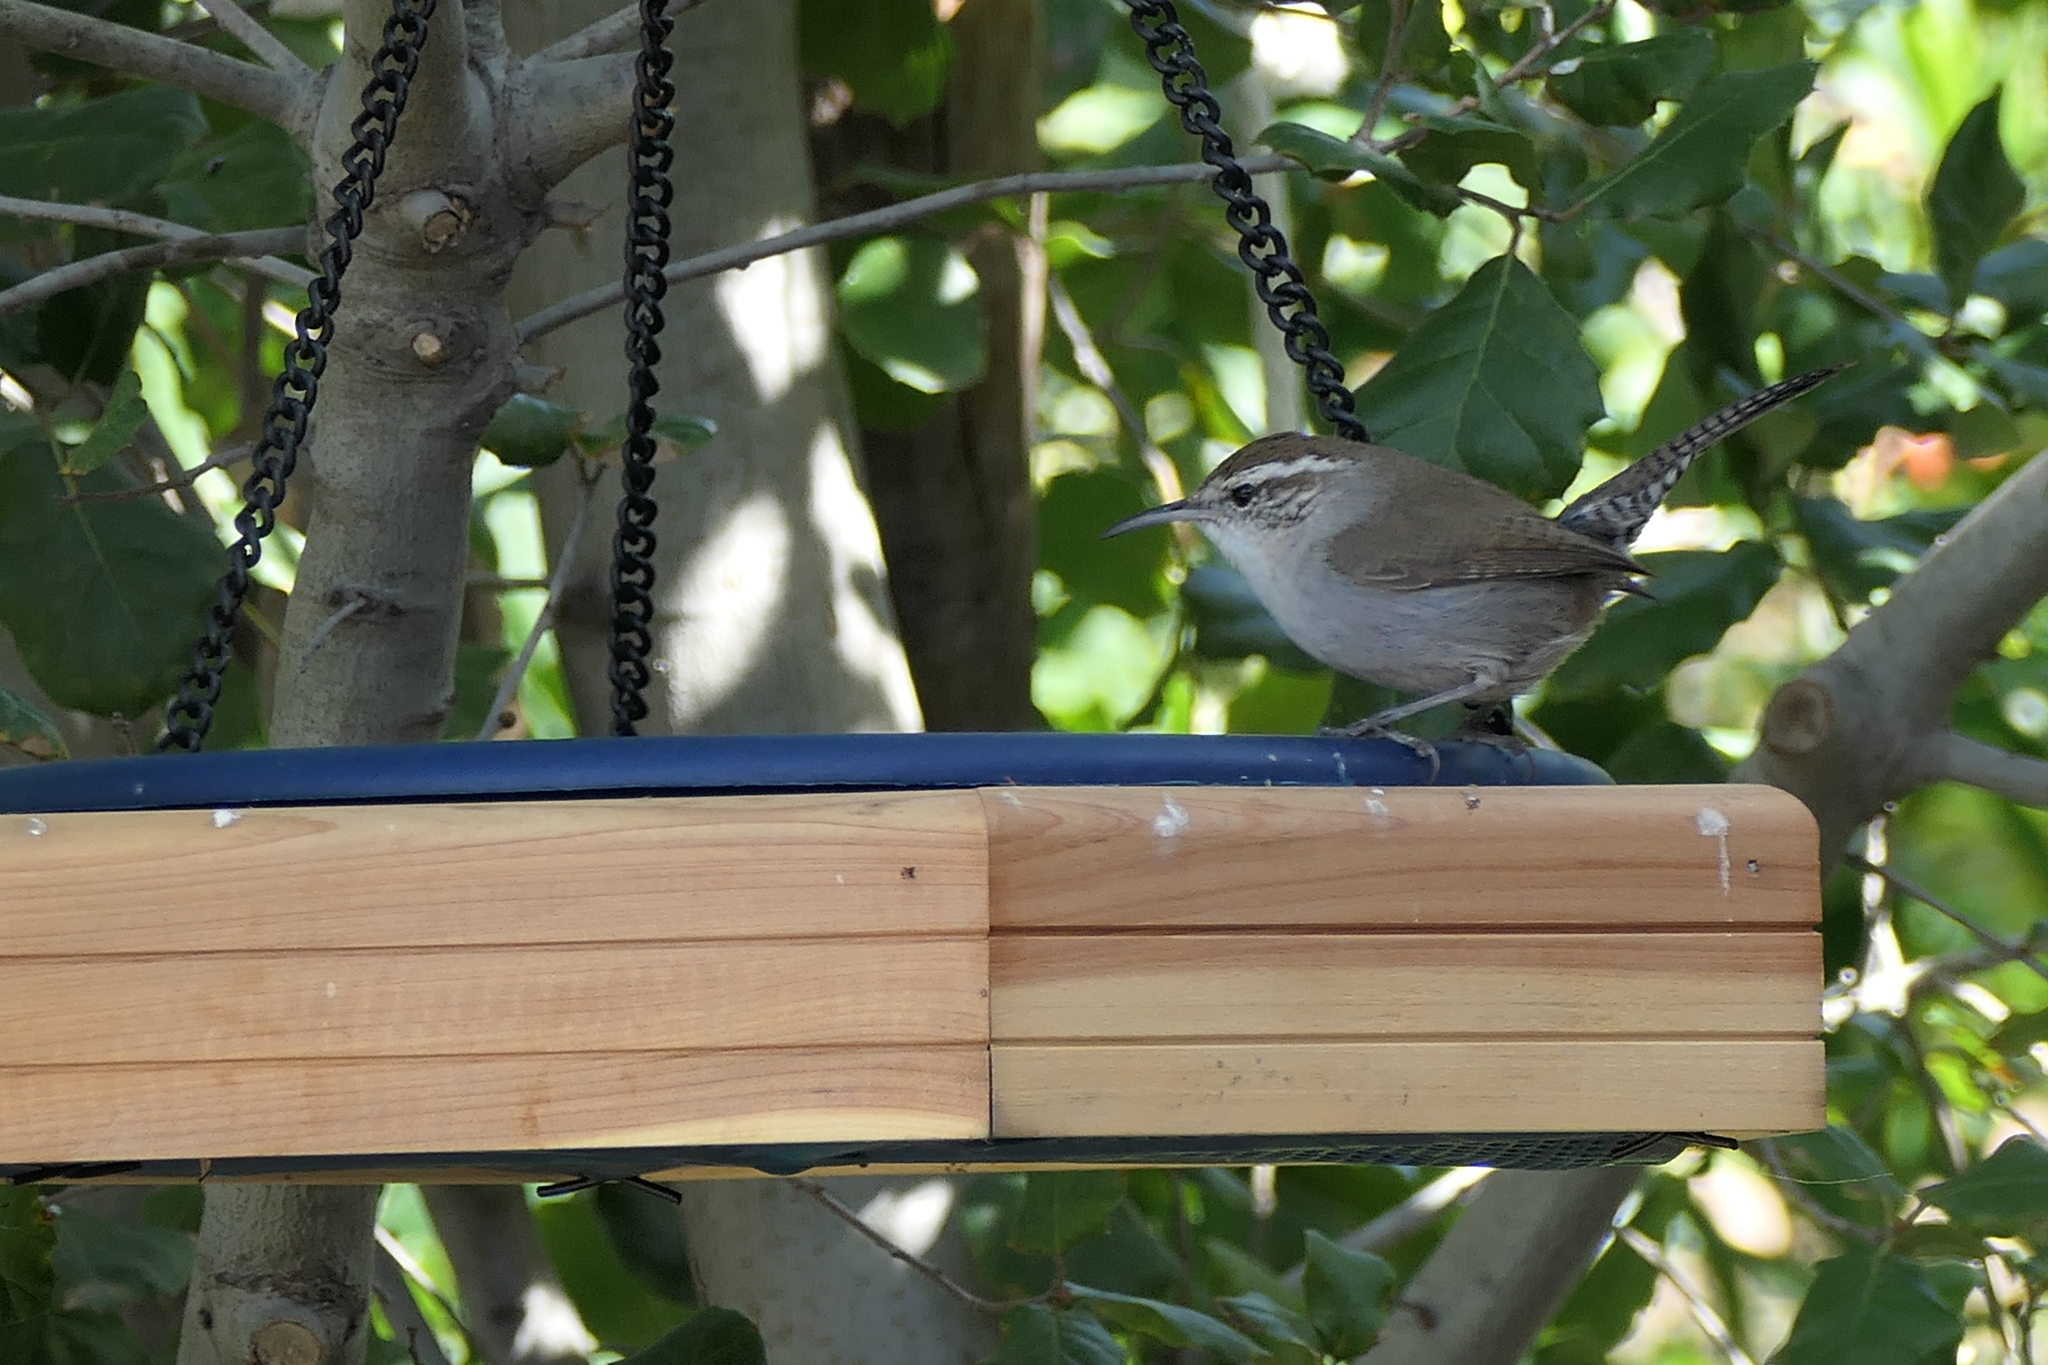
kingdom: Animalia
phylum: Chordata
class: Aves
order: Passeriformes
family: Troglodytidae
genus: Thryomanes
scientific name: Thryomanes bewickii
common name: Bewick's wren
